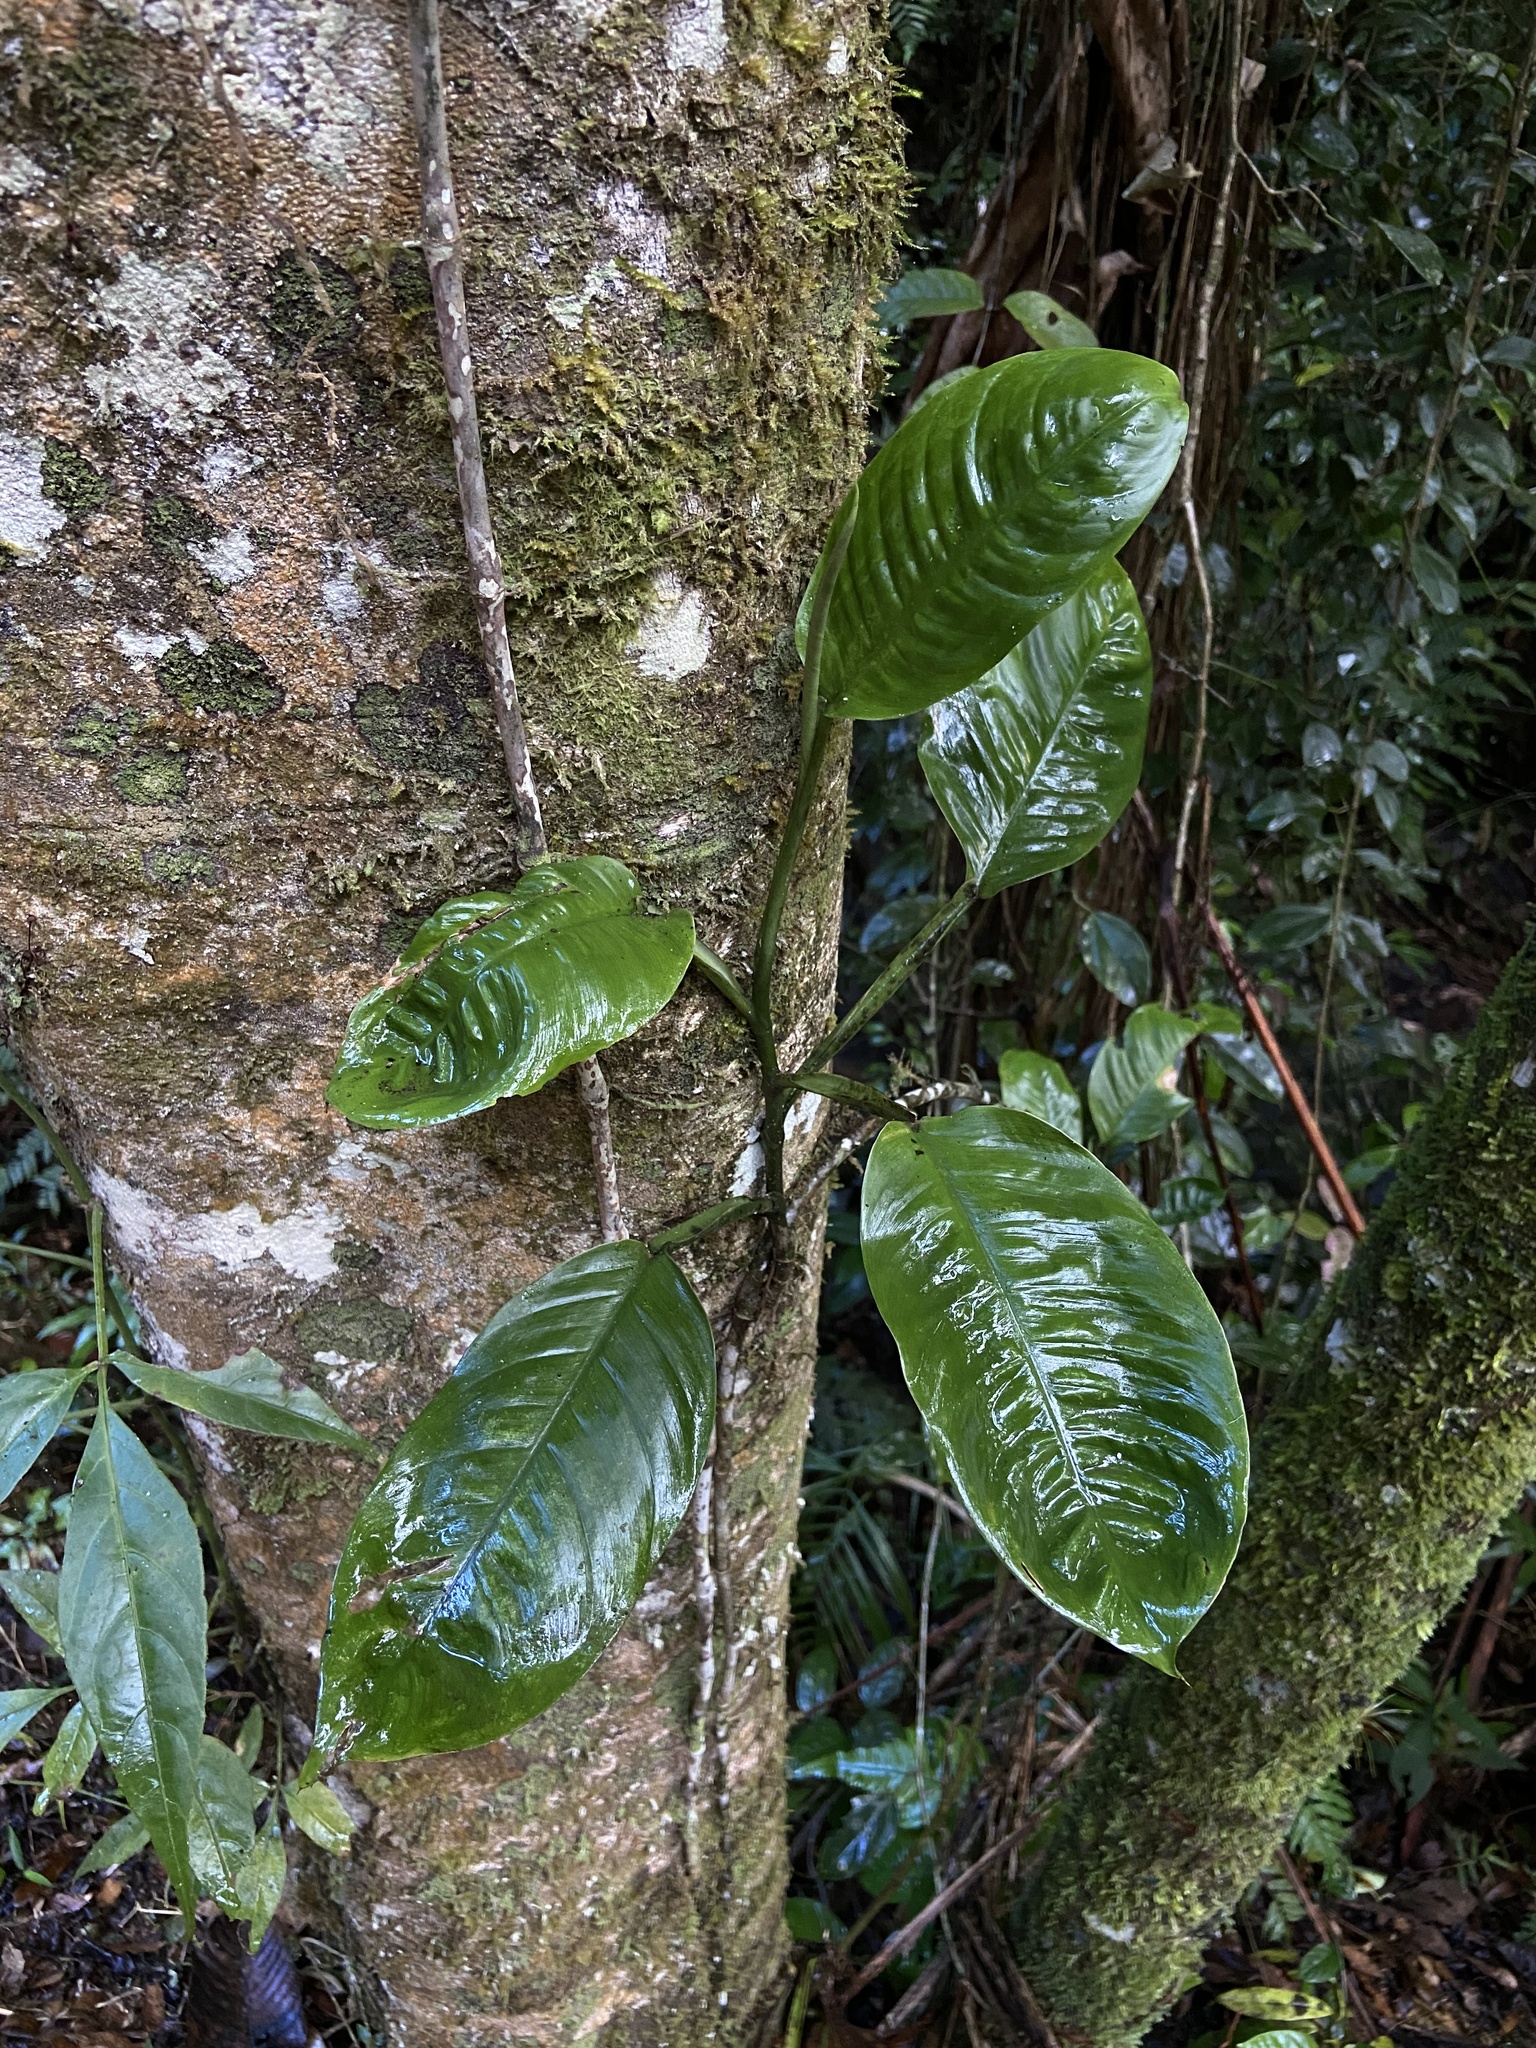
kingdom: Plantae
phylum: Tracheophyta
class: Liliopsida
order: Alismatales
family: Araceae
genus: Philodendron
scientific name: Philodendron rhodospermum
